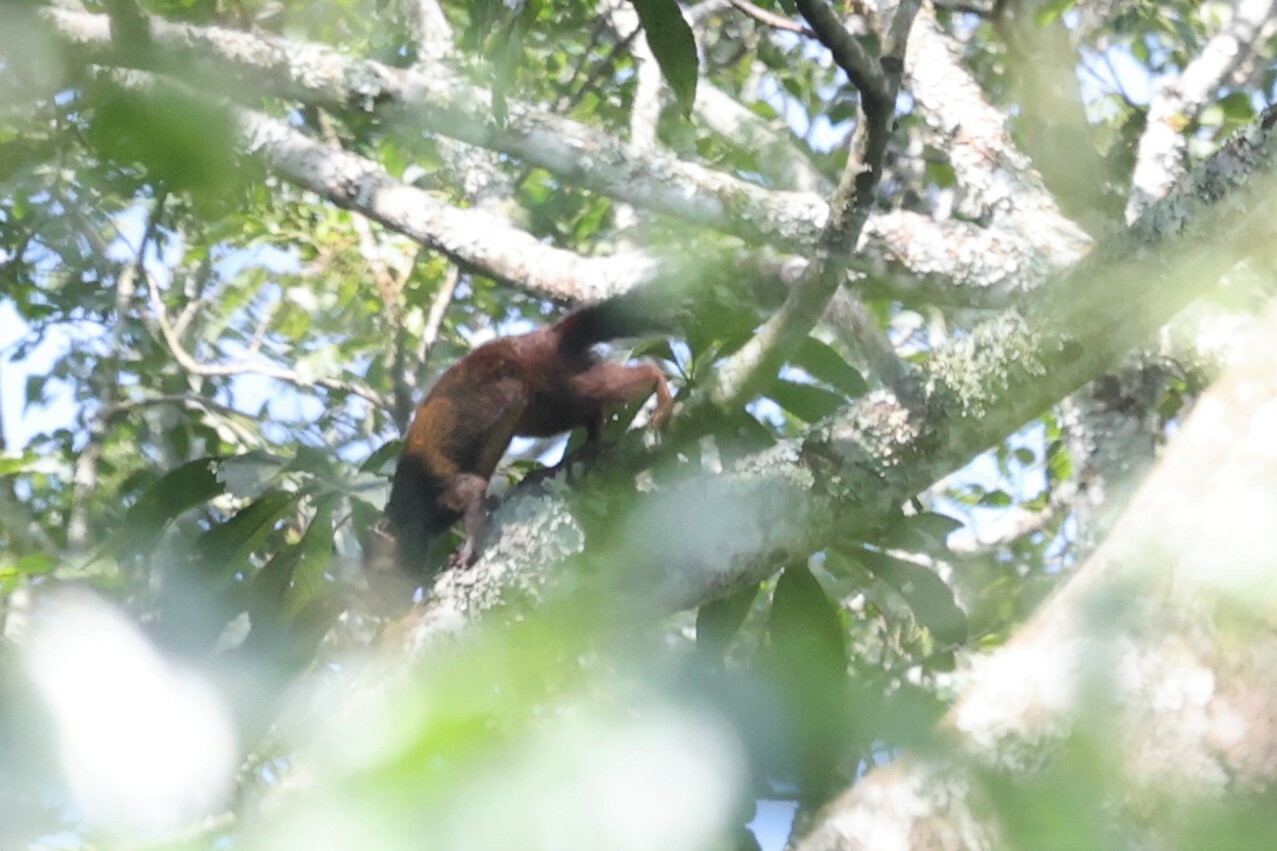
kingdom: Animalia
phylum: Chordata
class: Mammalia
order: Rodentia
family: Sciuridae
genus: Protoxerus
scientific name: Protoxerus stangeri
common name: Forest giant squirrel
